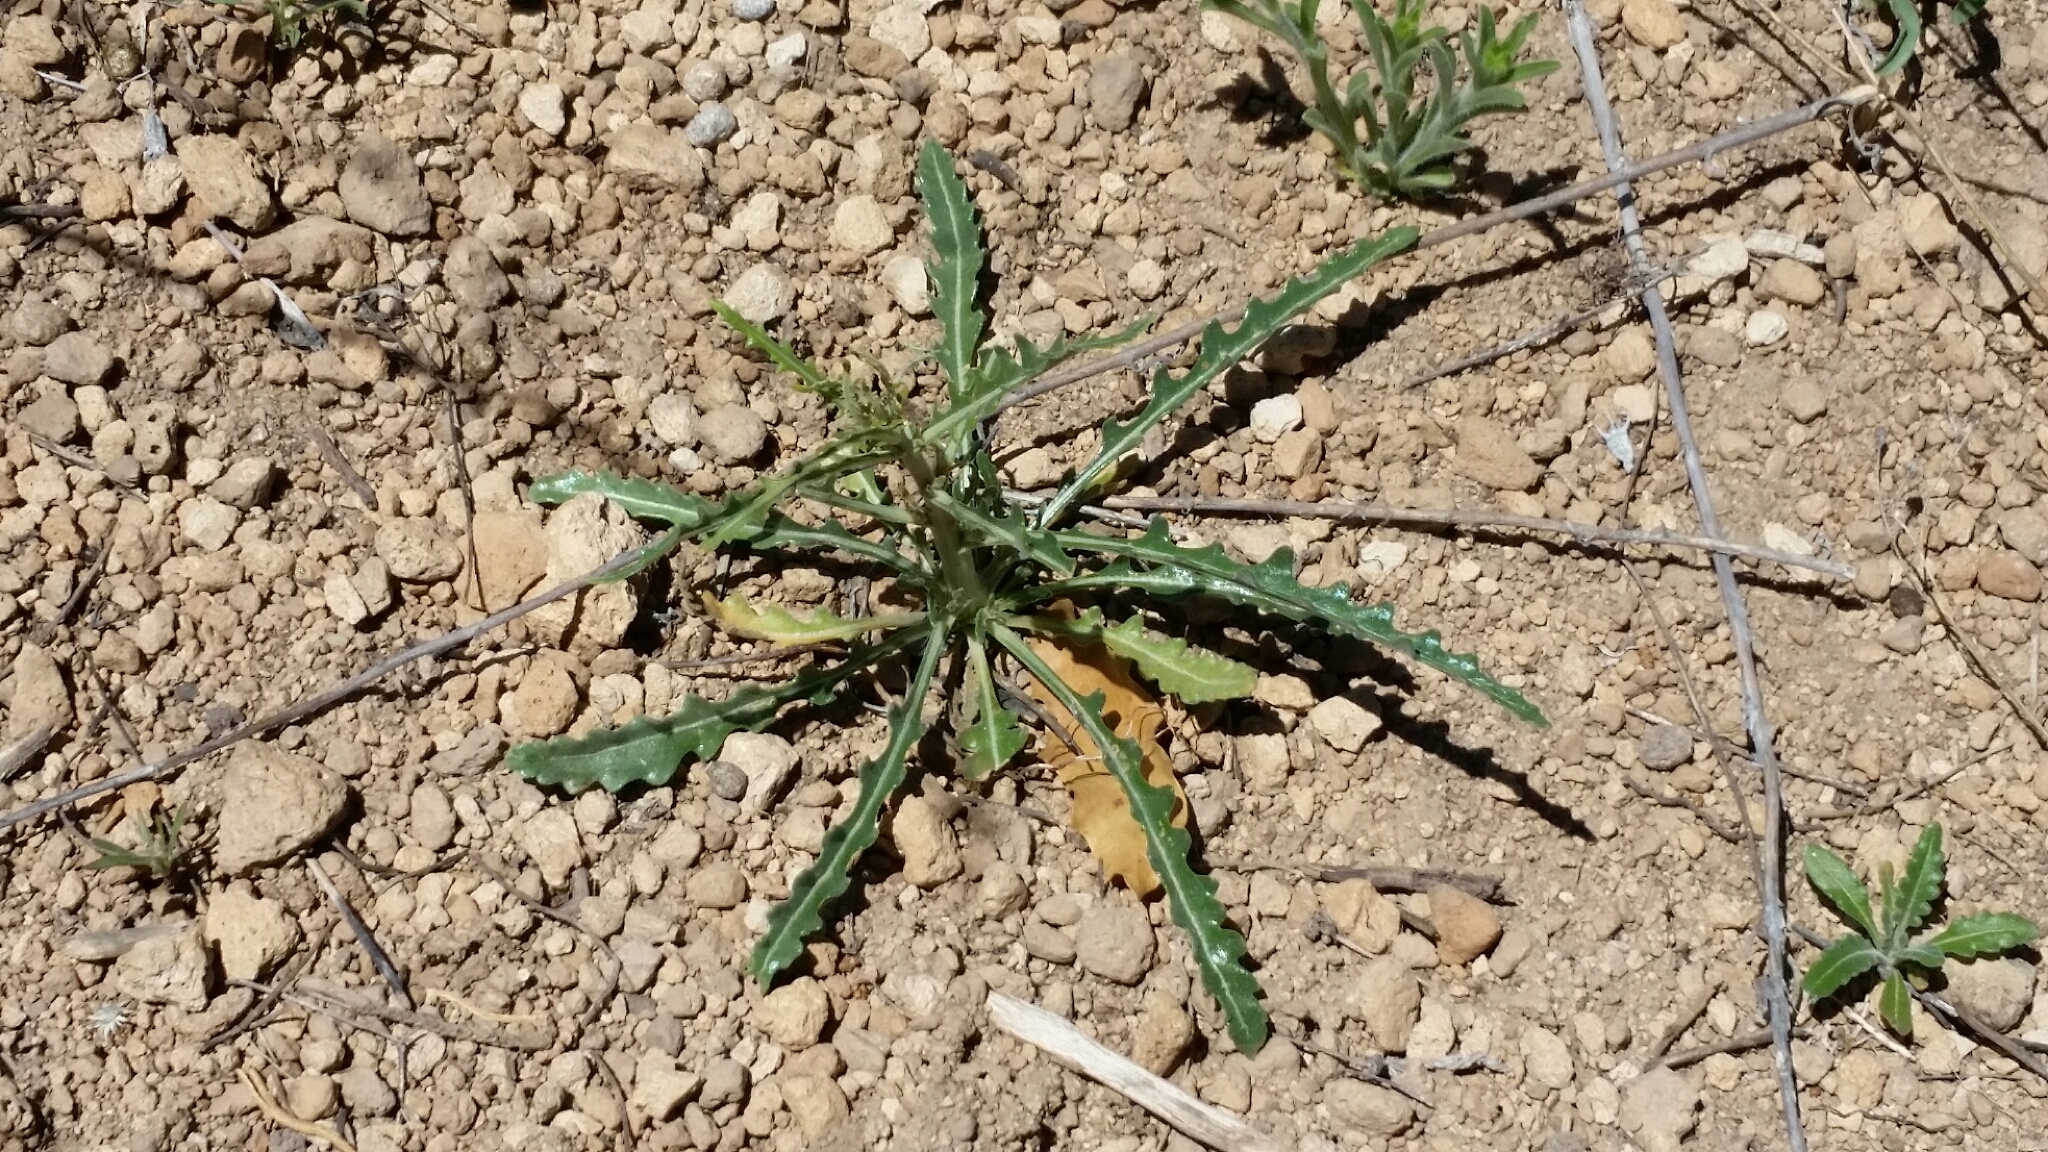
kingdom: Plantae
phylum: Tracheophyta
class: Magnoliopsida
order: Cornales
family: Loasaceae
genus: Mentzelia
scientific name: Mentzelia multiflora
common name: Adonis blazingstar
